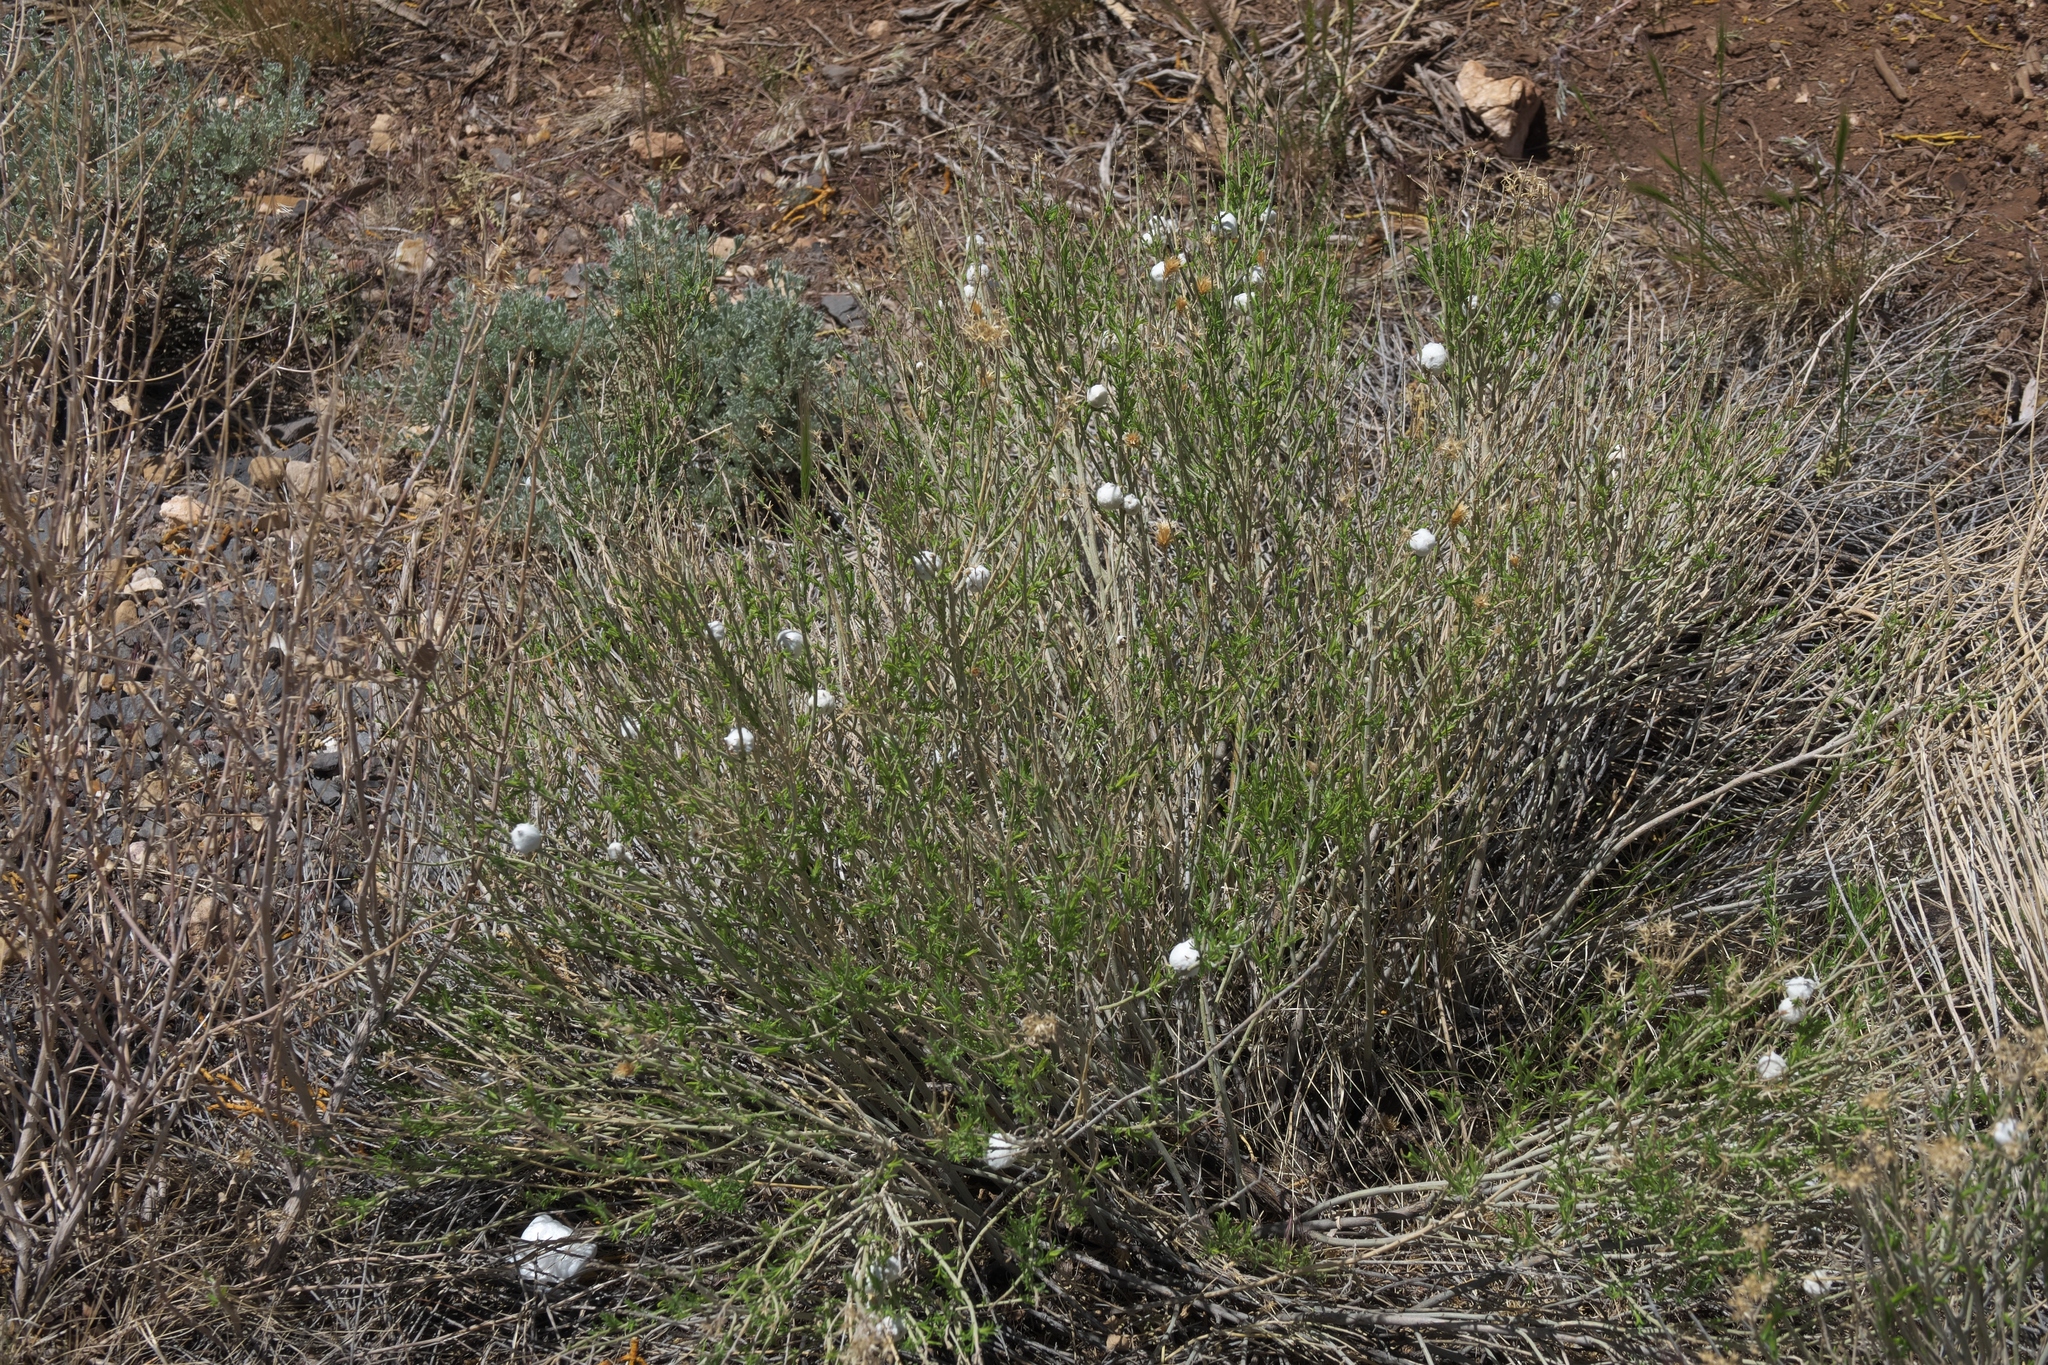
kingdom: Plantae
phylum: Tracheophyta
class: Magnoliopsida
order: Asterales
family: Asteraceae
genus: Ericameria
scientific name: Ericameria nauseosa
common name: Rubber rabbitbrush
